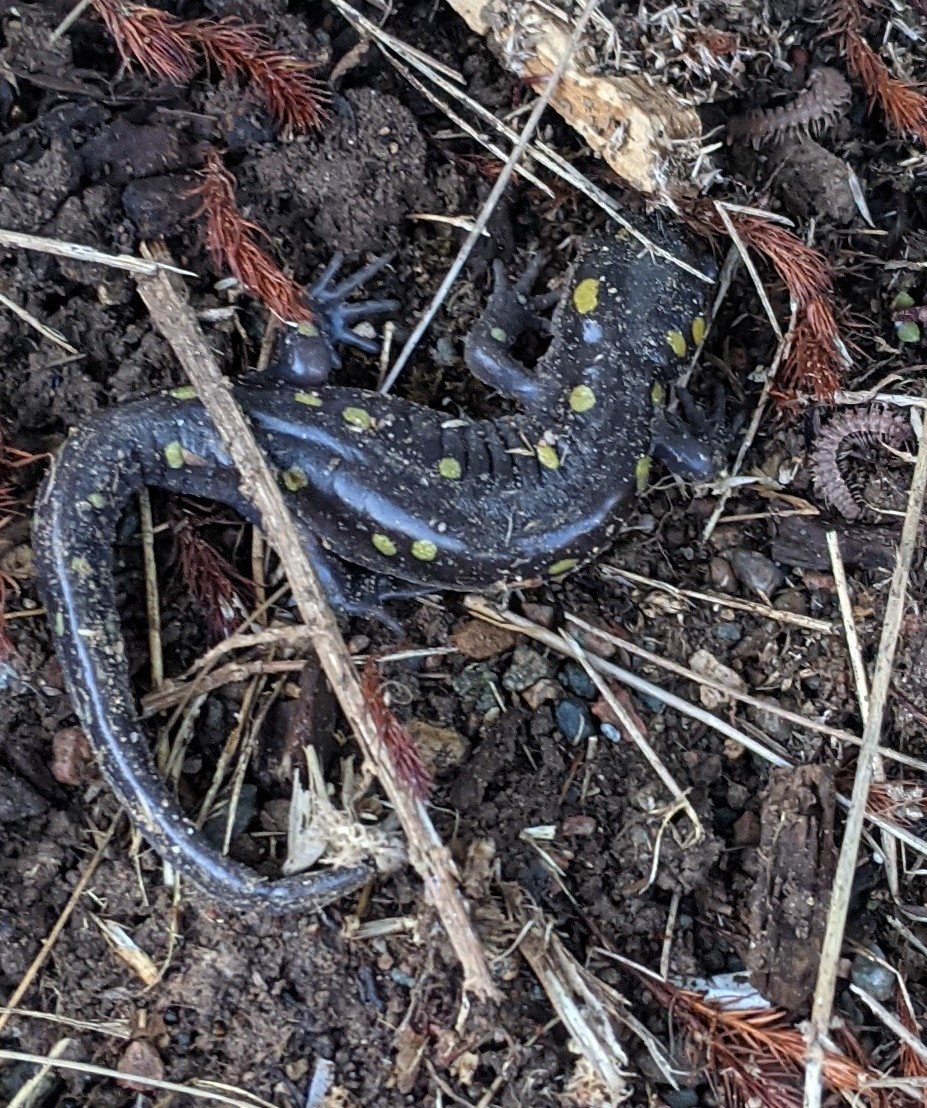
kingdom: Animalia
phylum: Chordata
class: Amphibia
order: Caudata
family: Ambystomatidae
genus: Ambystoma
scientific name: Ambystoma maculatum
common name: Spotted salamander
